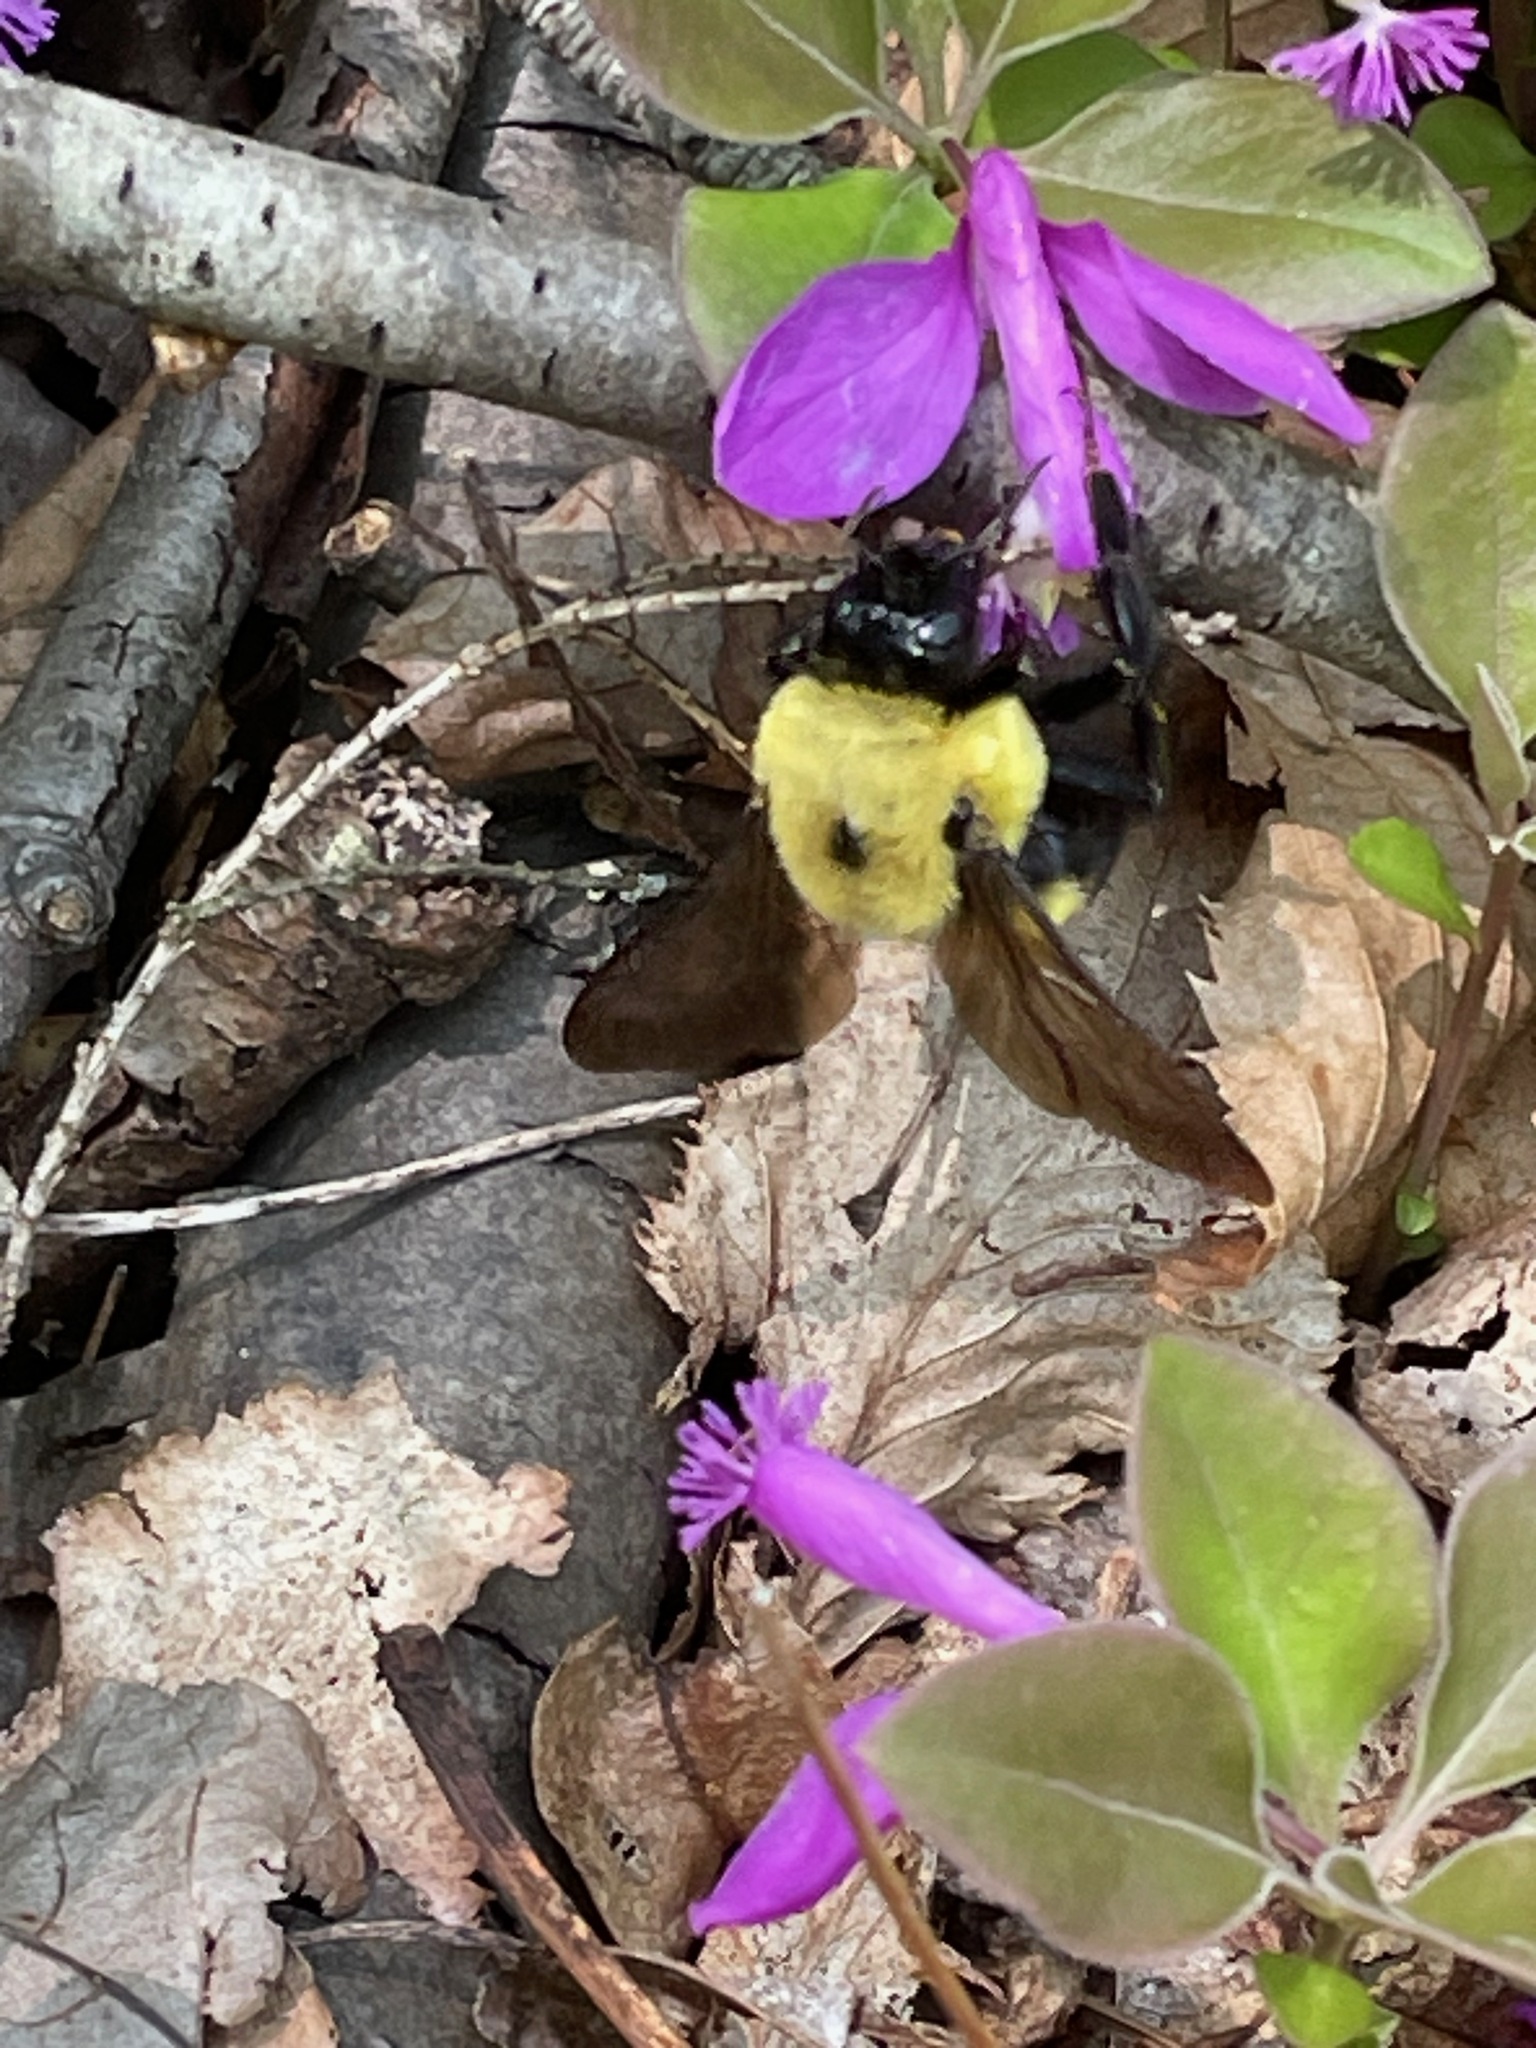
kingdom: Animalia
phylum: Arthropoda
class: Insecta
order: Hymenoptera
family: Apidae
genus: Bombus
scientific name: Bombus griseocollis
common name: Brown-belted bumble bee
